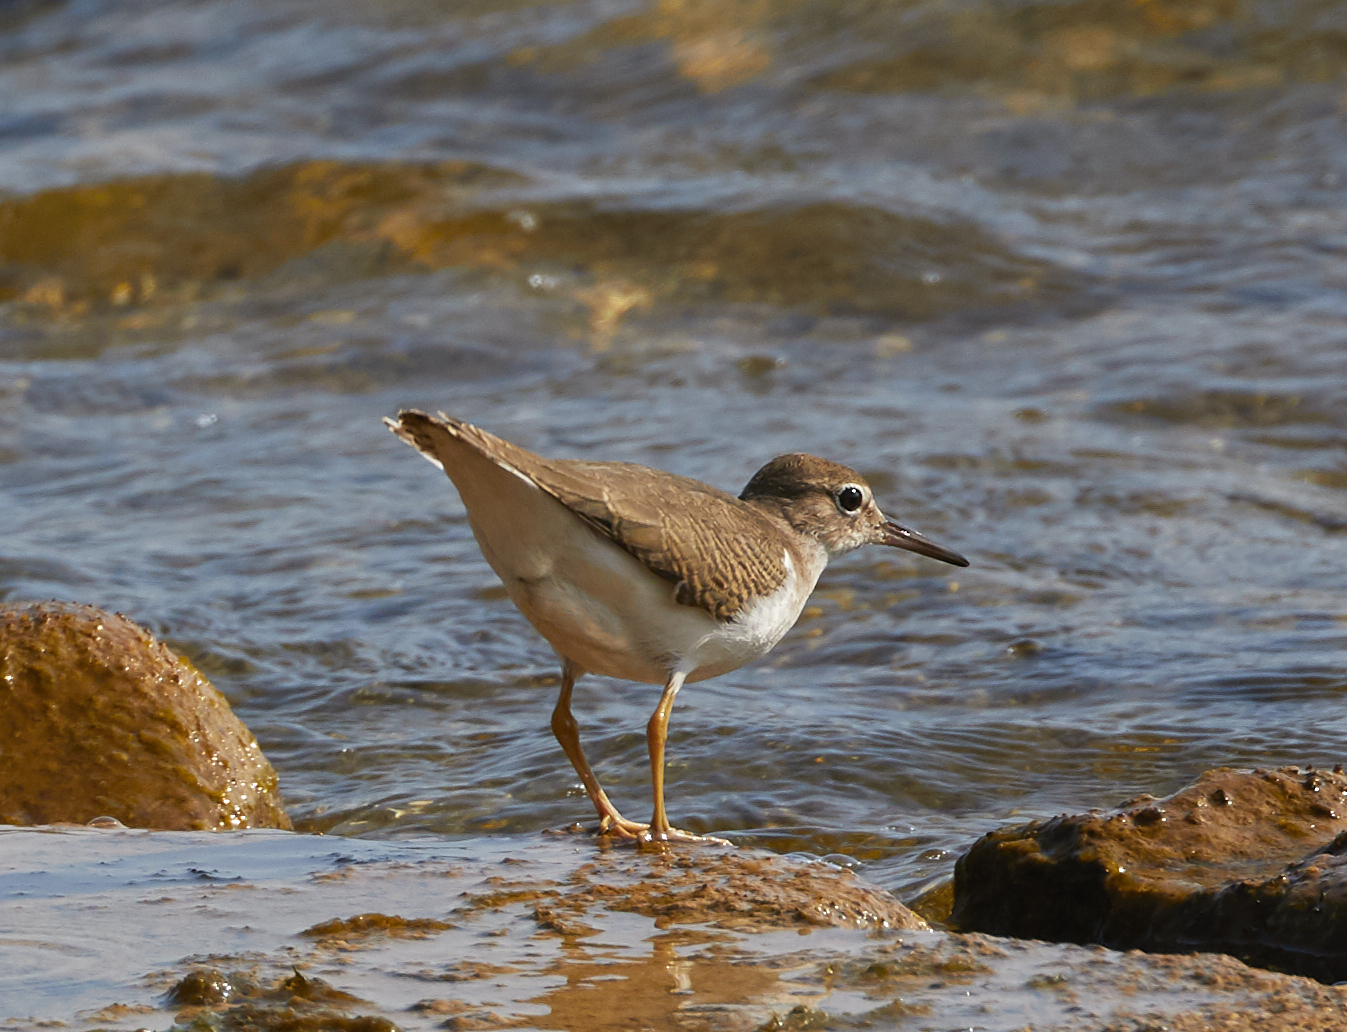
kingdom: Animalia
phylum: Chordata
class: Aves
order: Charadriiformes
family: Scolopacidae
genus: Actitis
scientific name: Actitis macularius
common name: Spotted sandpiper
